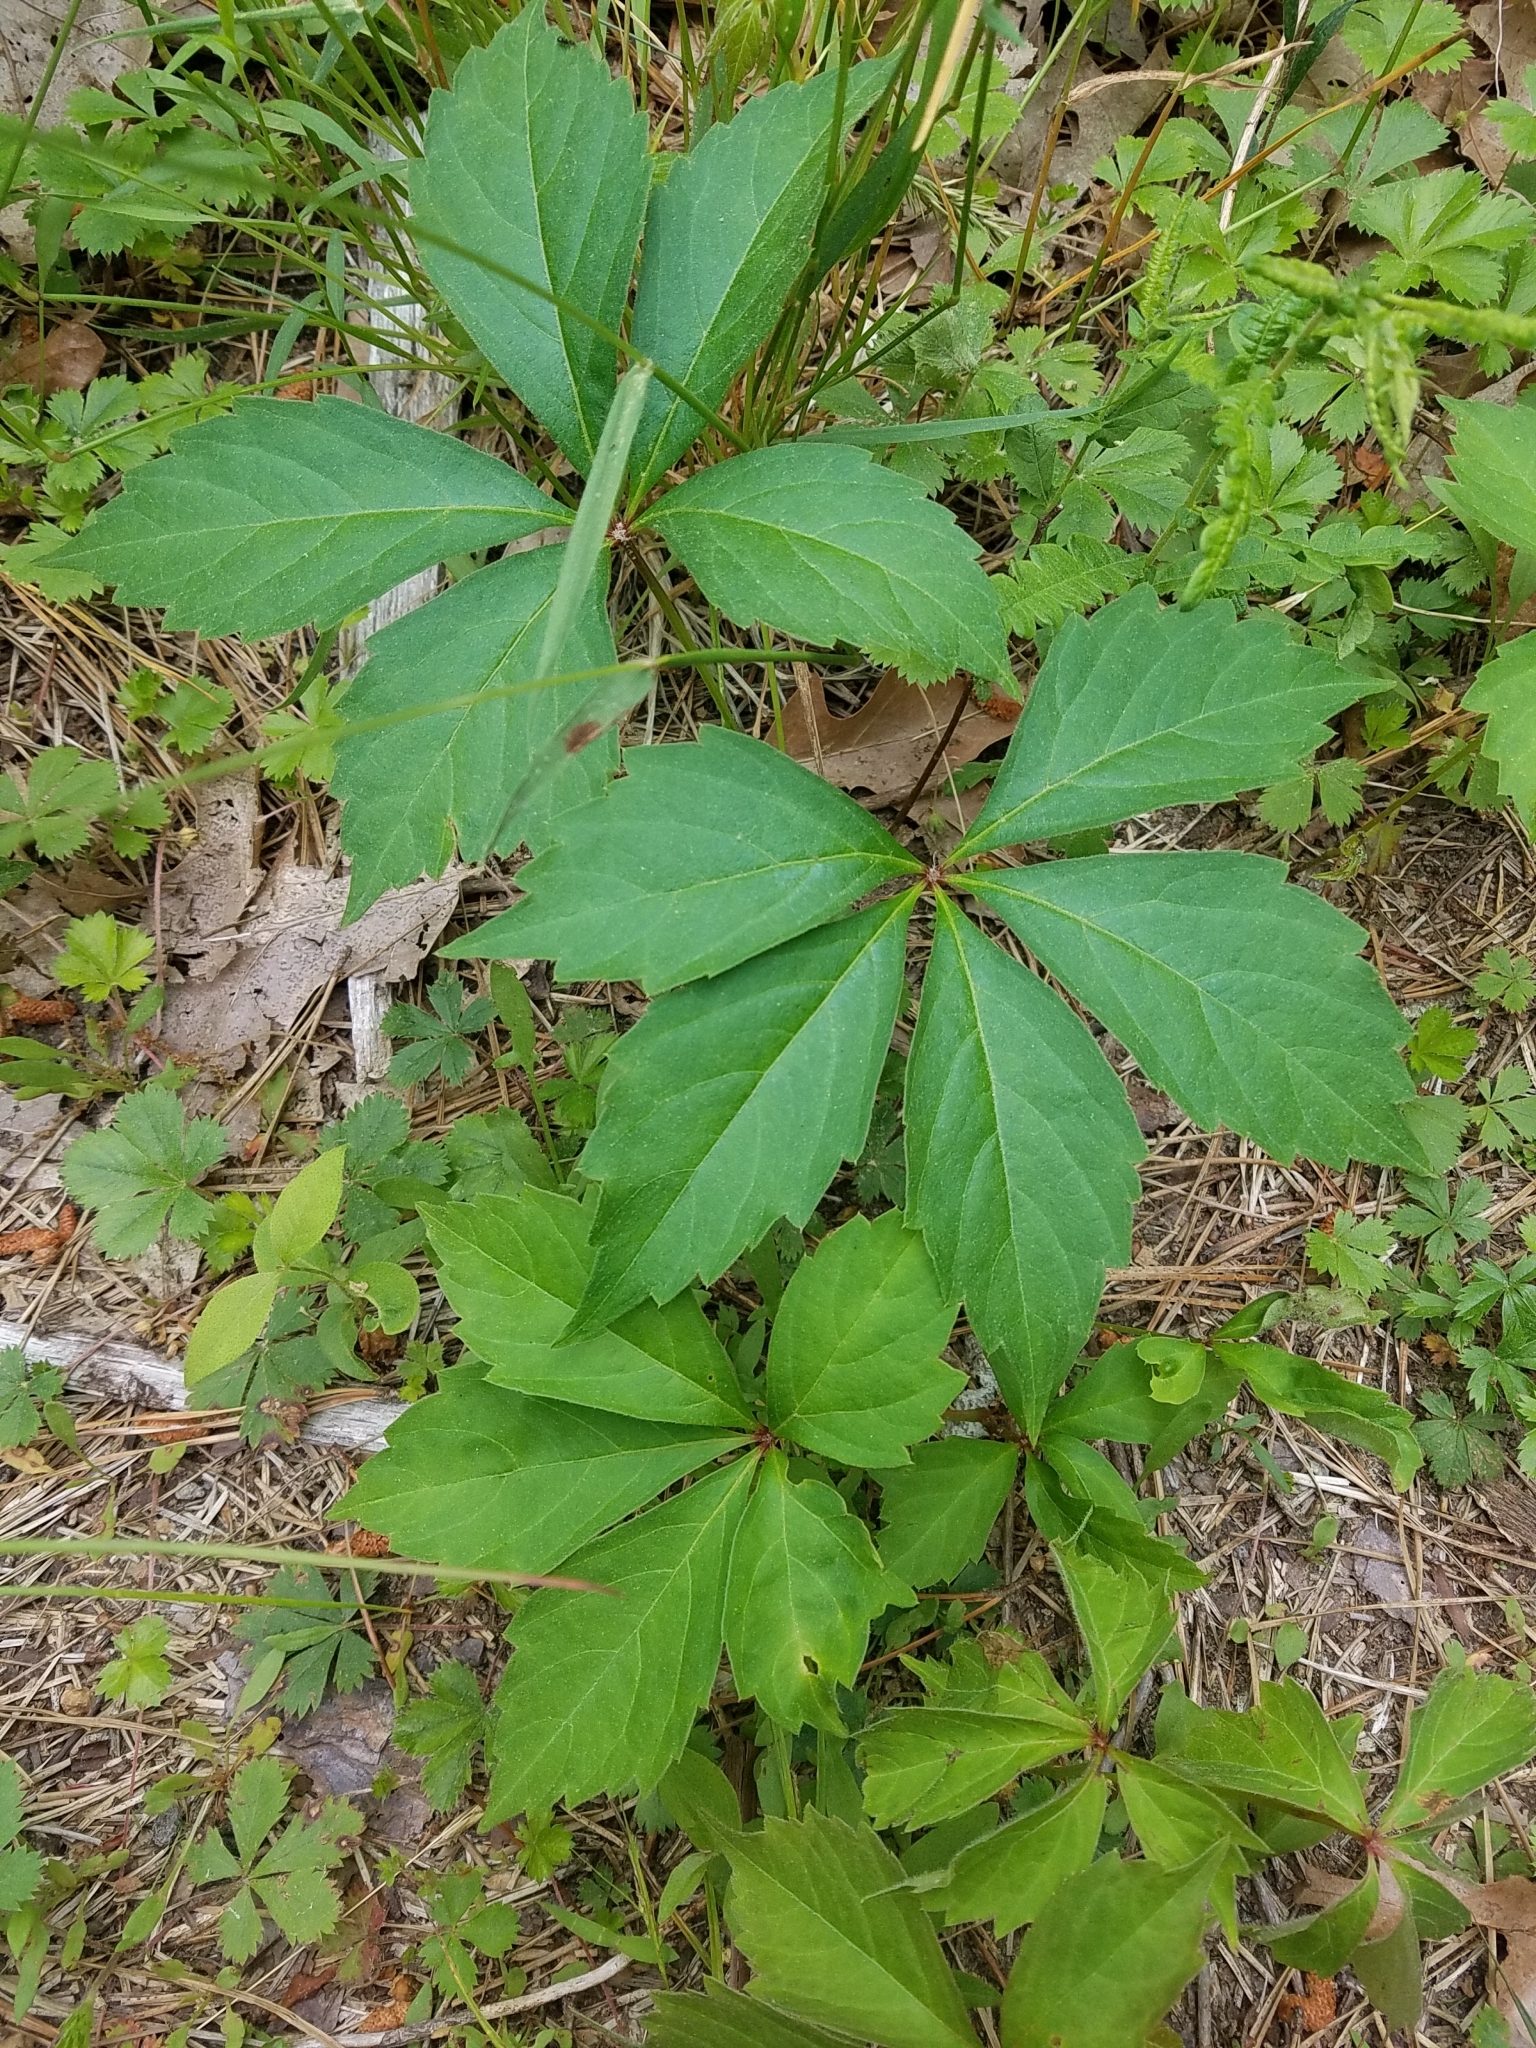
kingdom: Plantae
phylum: Tracheophyta
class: Magnoliopsida
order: Vitales
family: Vitaceae
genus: Parthenocissus
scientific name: Parthenocissus quinquefolia
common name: Virginia-creeper
